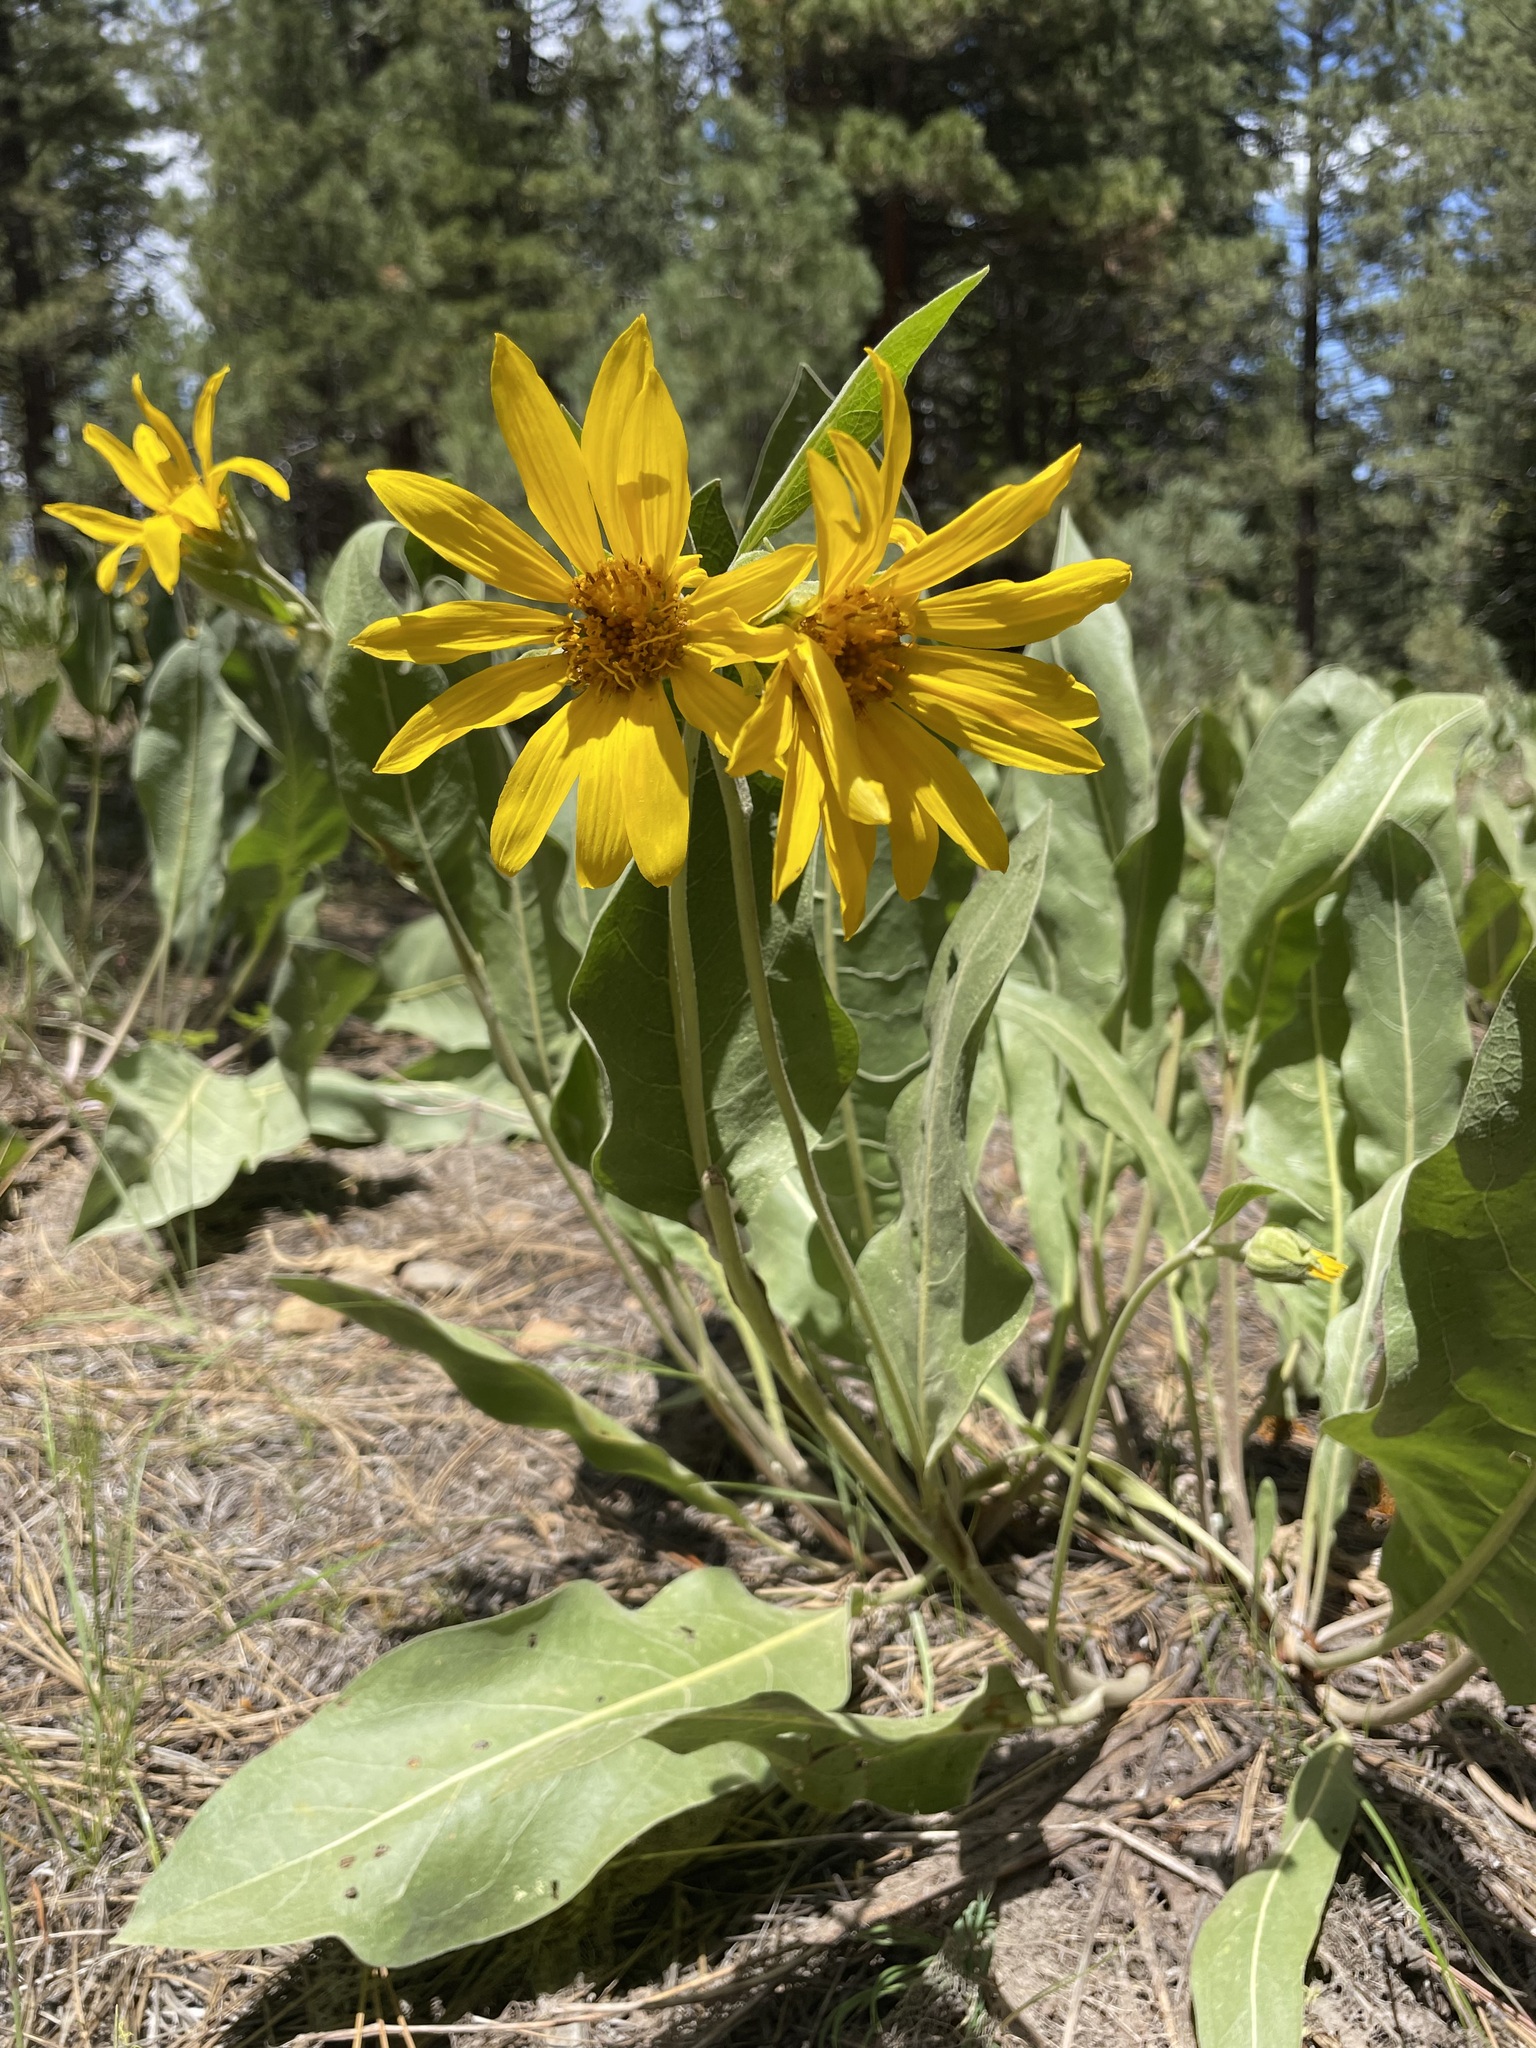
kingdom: Plantae
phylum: Tracheophyta
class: Magnoliopsida
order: Asterales
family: Asteraceae
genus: Wyethia
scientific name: Wyethia mollis
